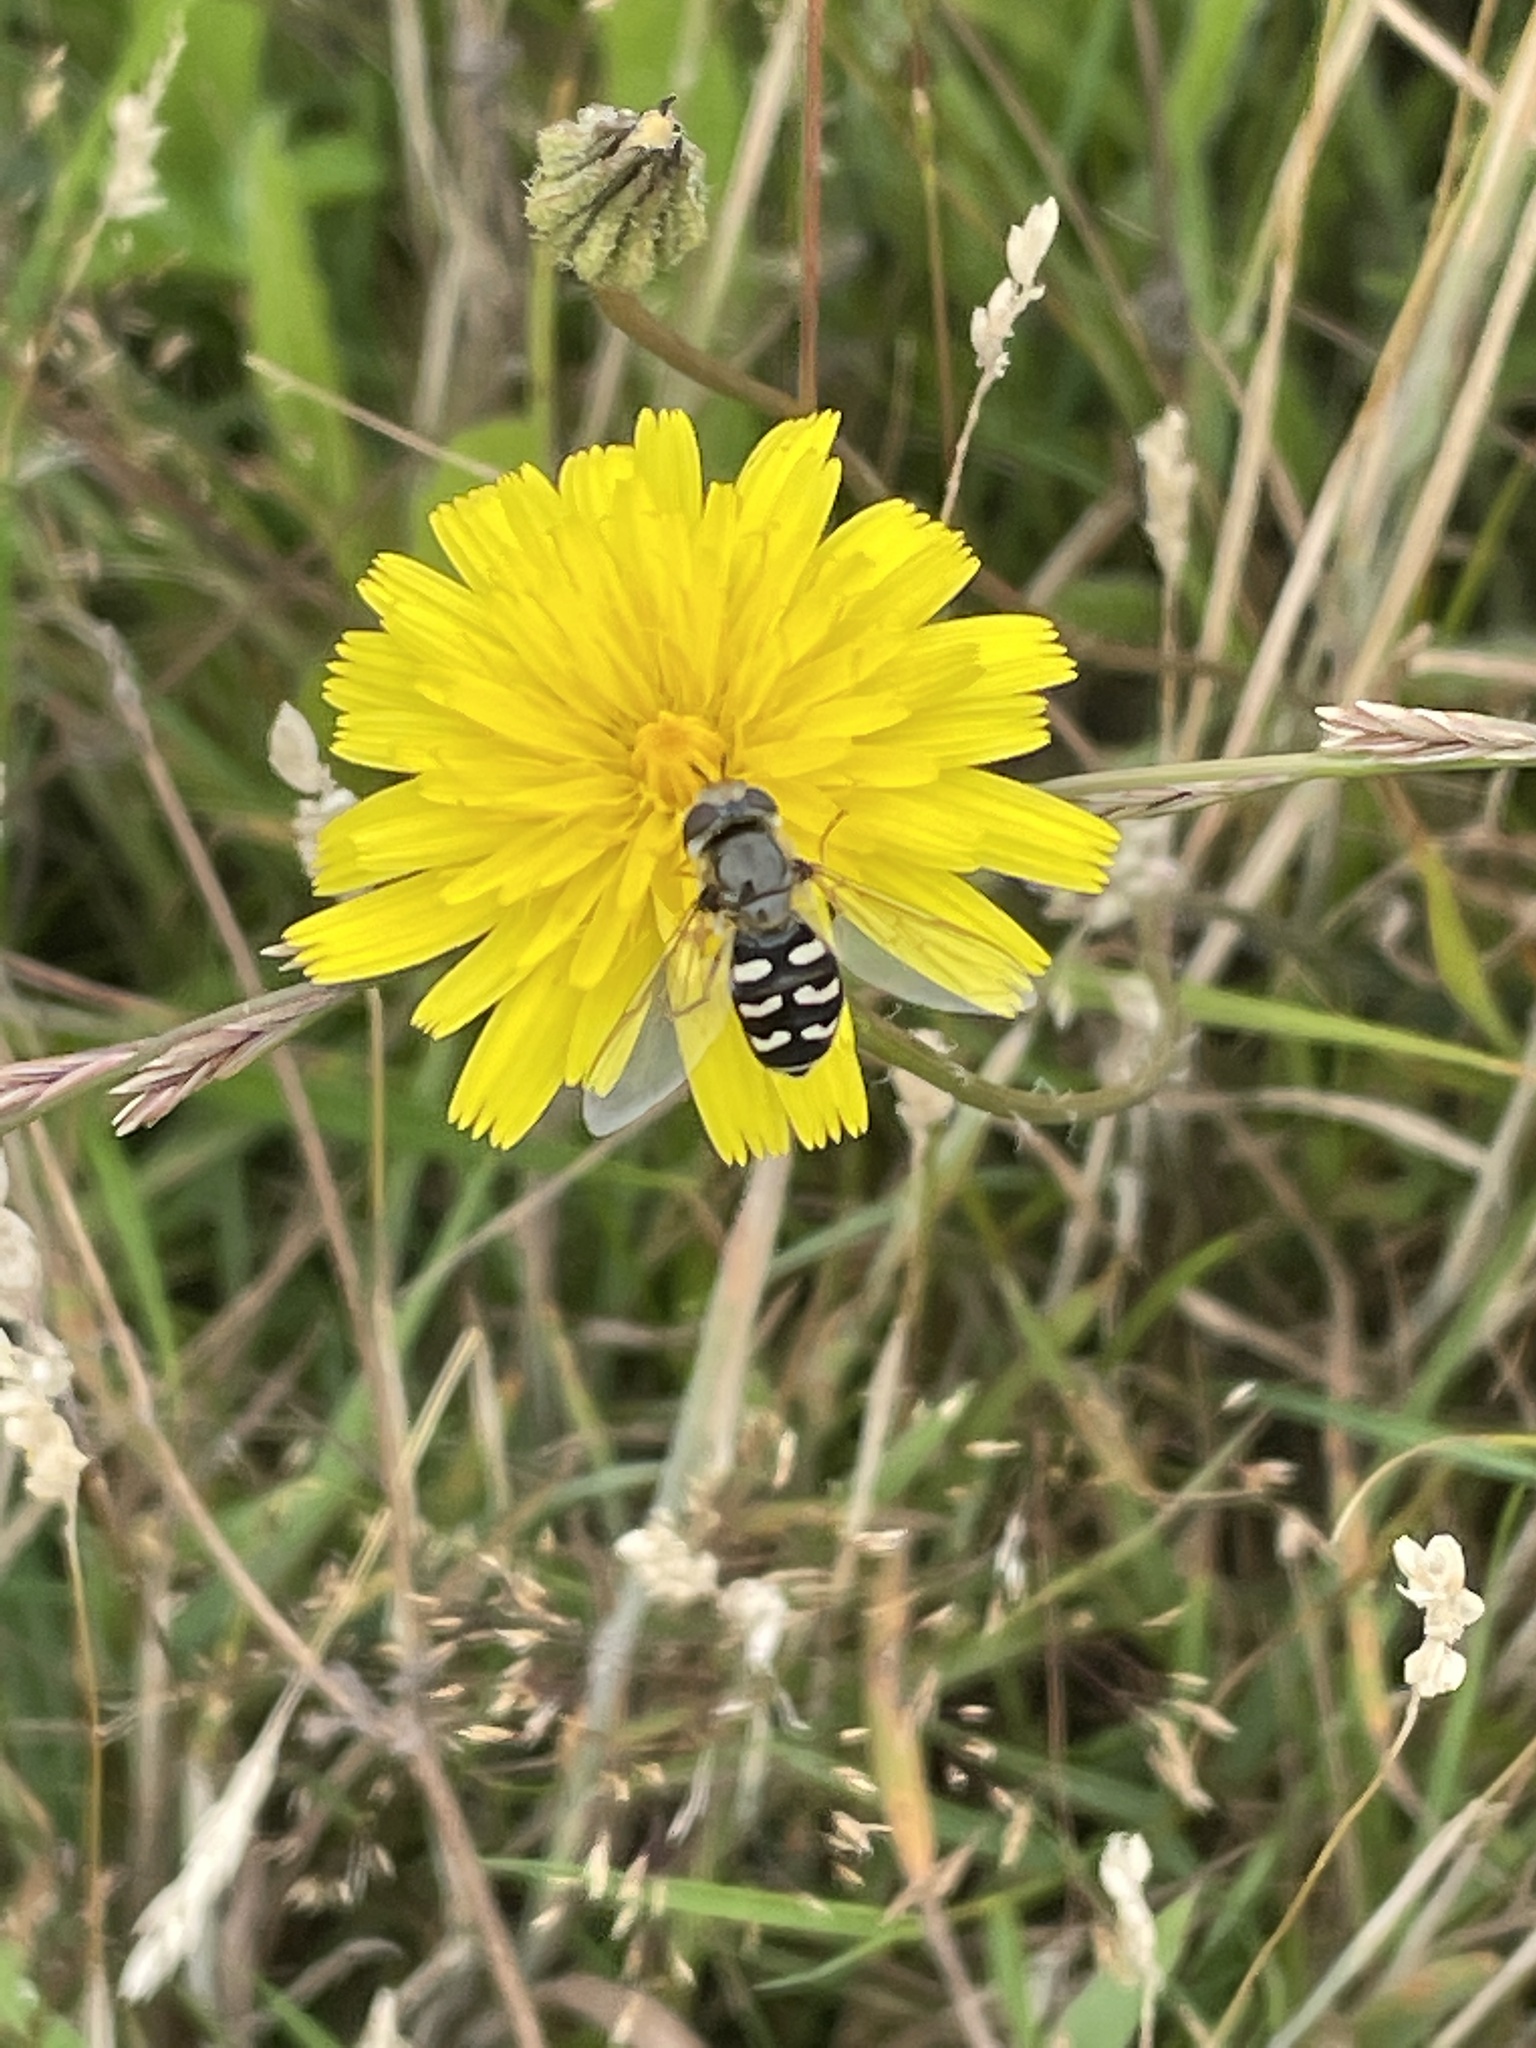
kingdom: Animalia
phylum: Arthropoda
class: Insecta
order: Diptera
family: Syrphidae
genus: Scaeva
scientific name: Scaeva pyrastri
